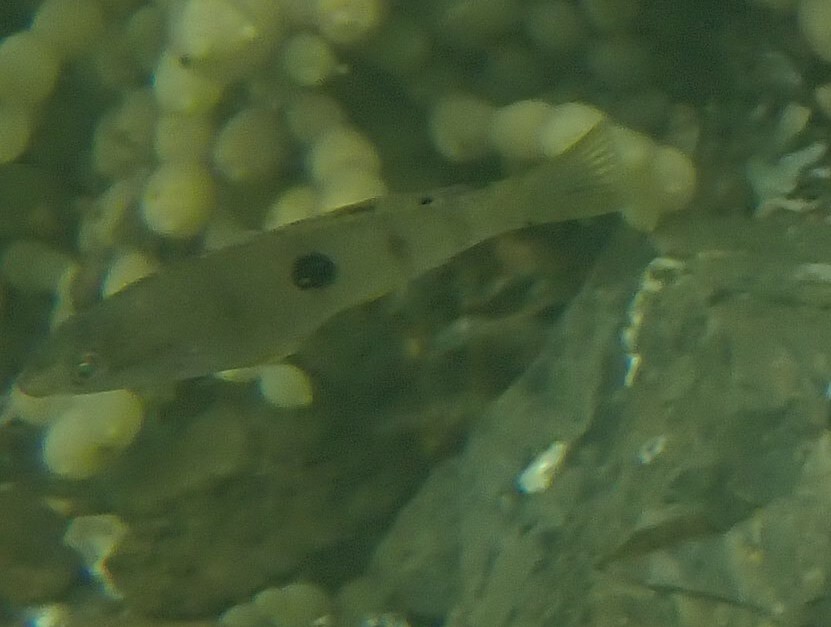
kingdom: Animalia
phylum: Chordata
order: Perciformes
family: Labridae
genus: Notolabrus
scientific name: Notolabrus celidotus
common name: Spotty
